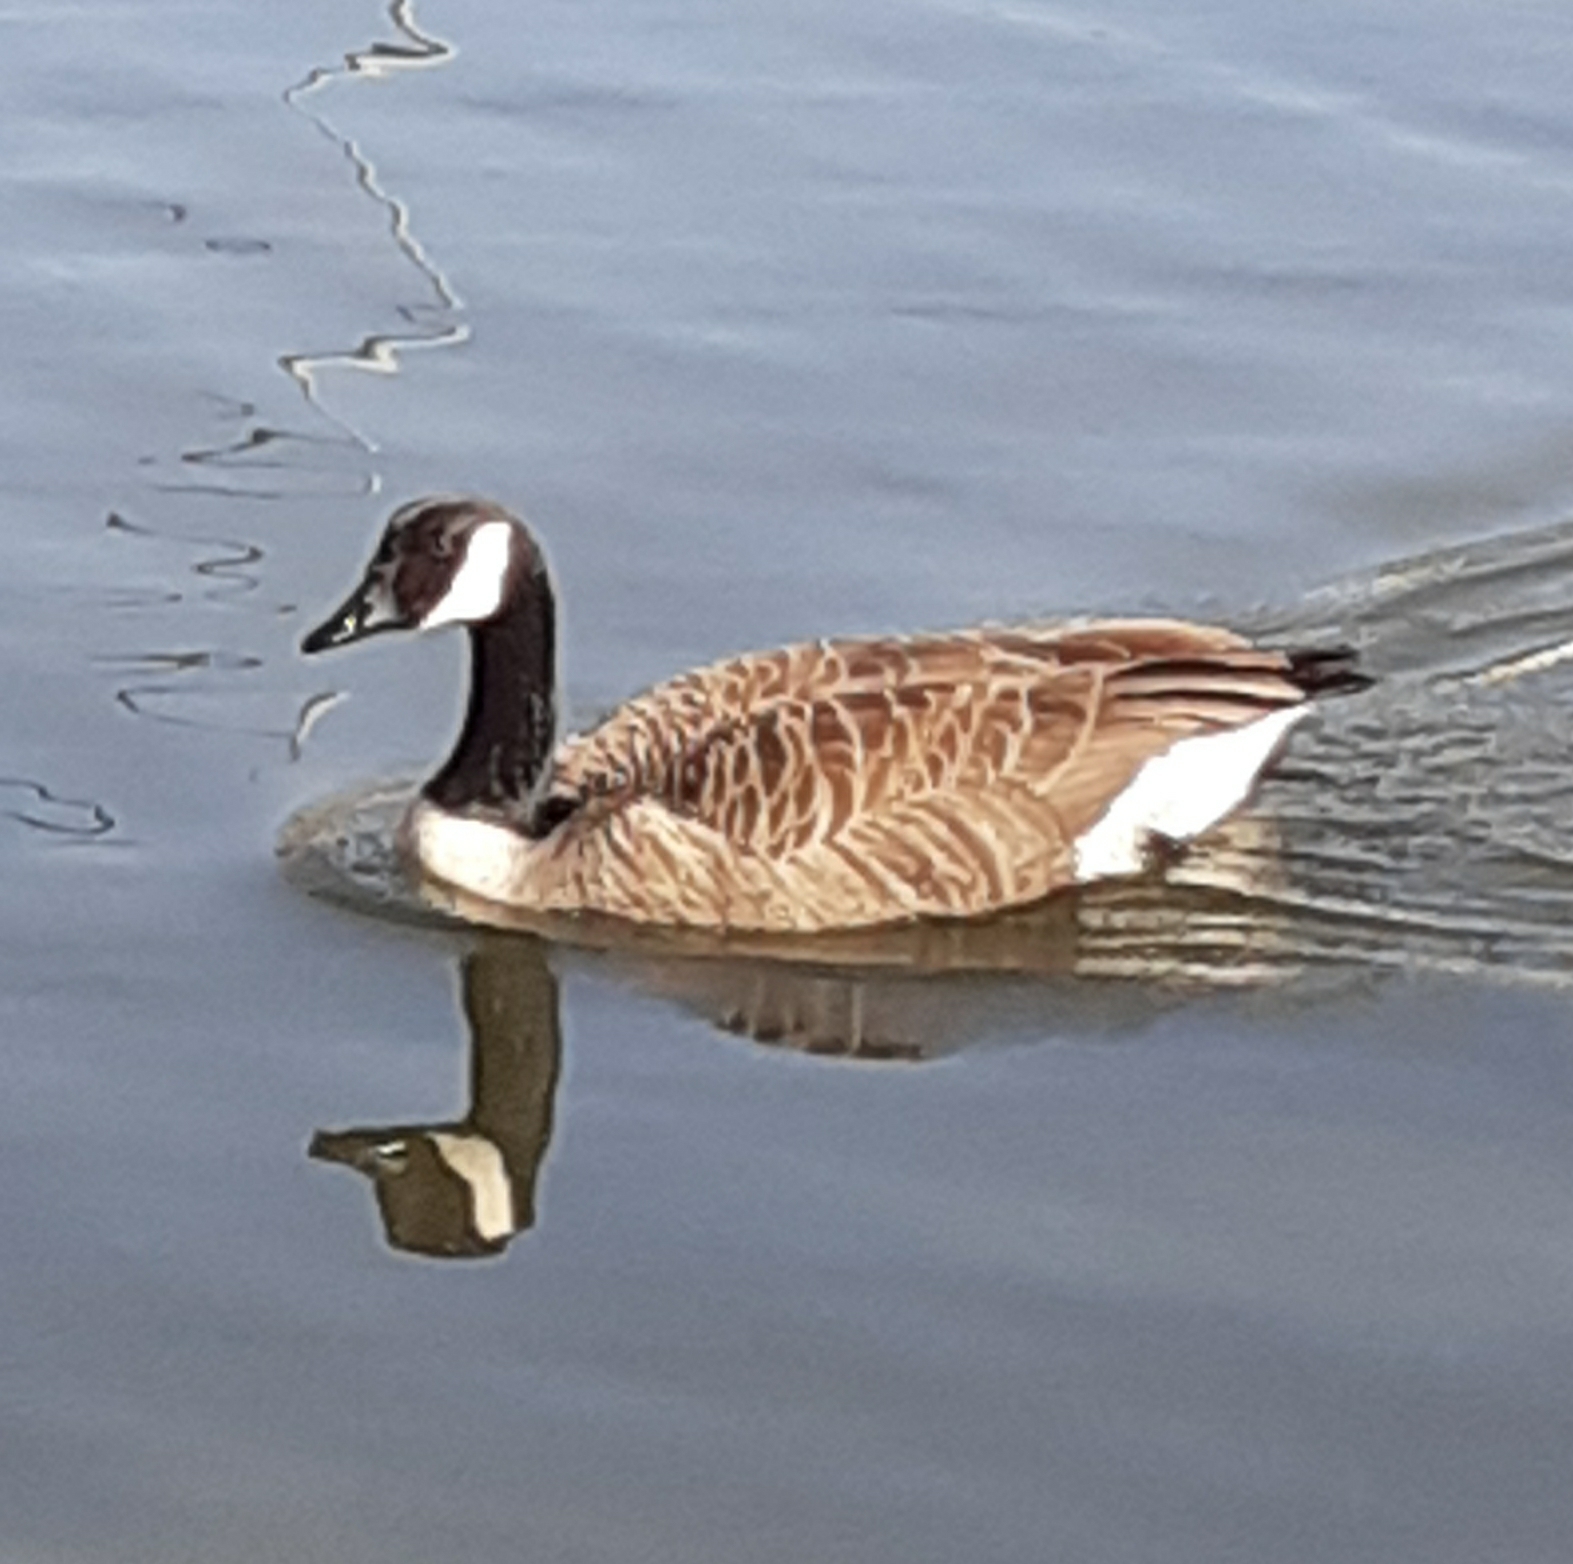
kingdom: Animalia
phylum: Chordata
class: Aves
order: Anseriformes
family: Anatidae
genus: Branta
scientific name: Branta canadensis
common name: Canada goose
